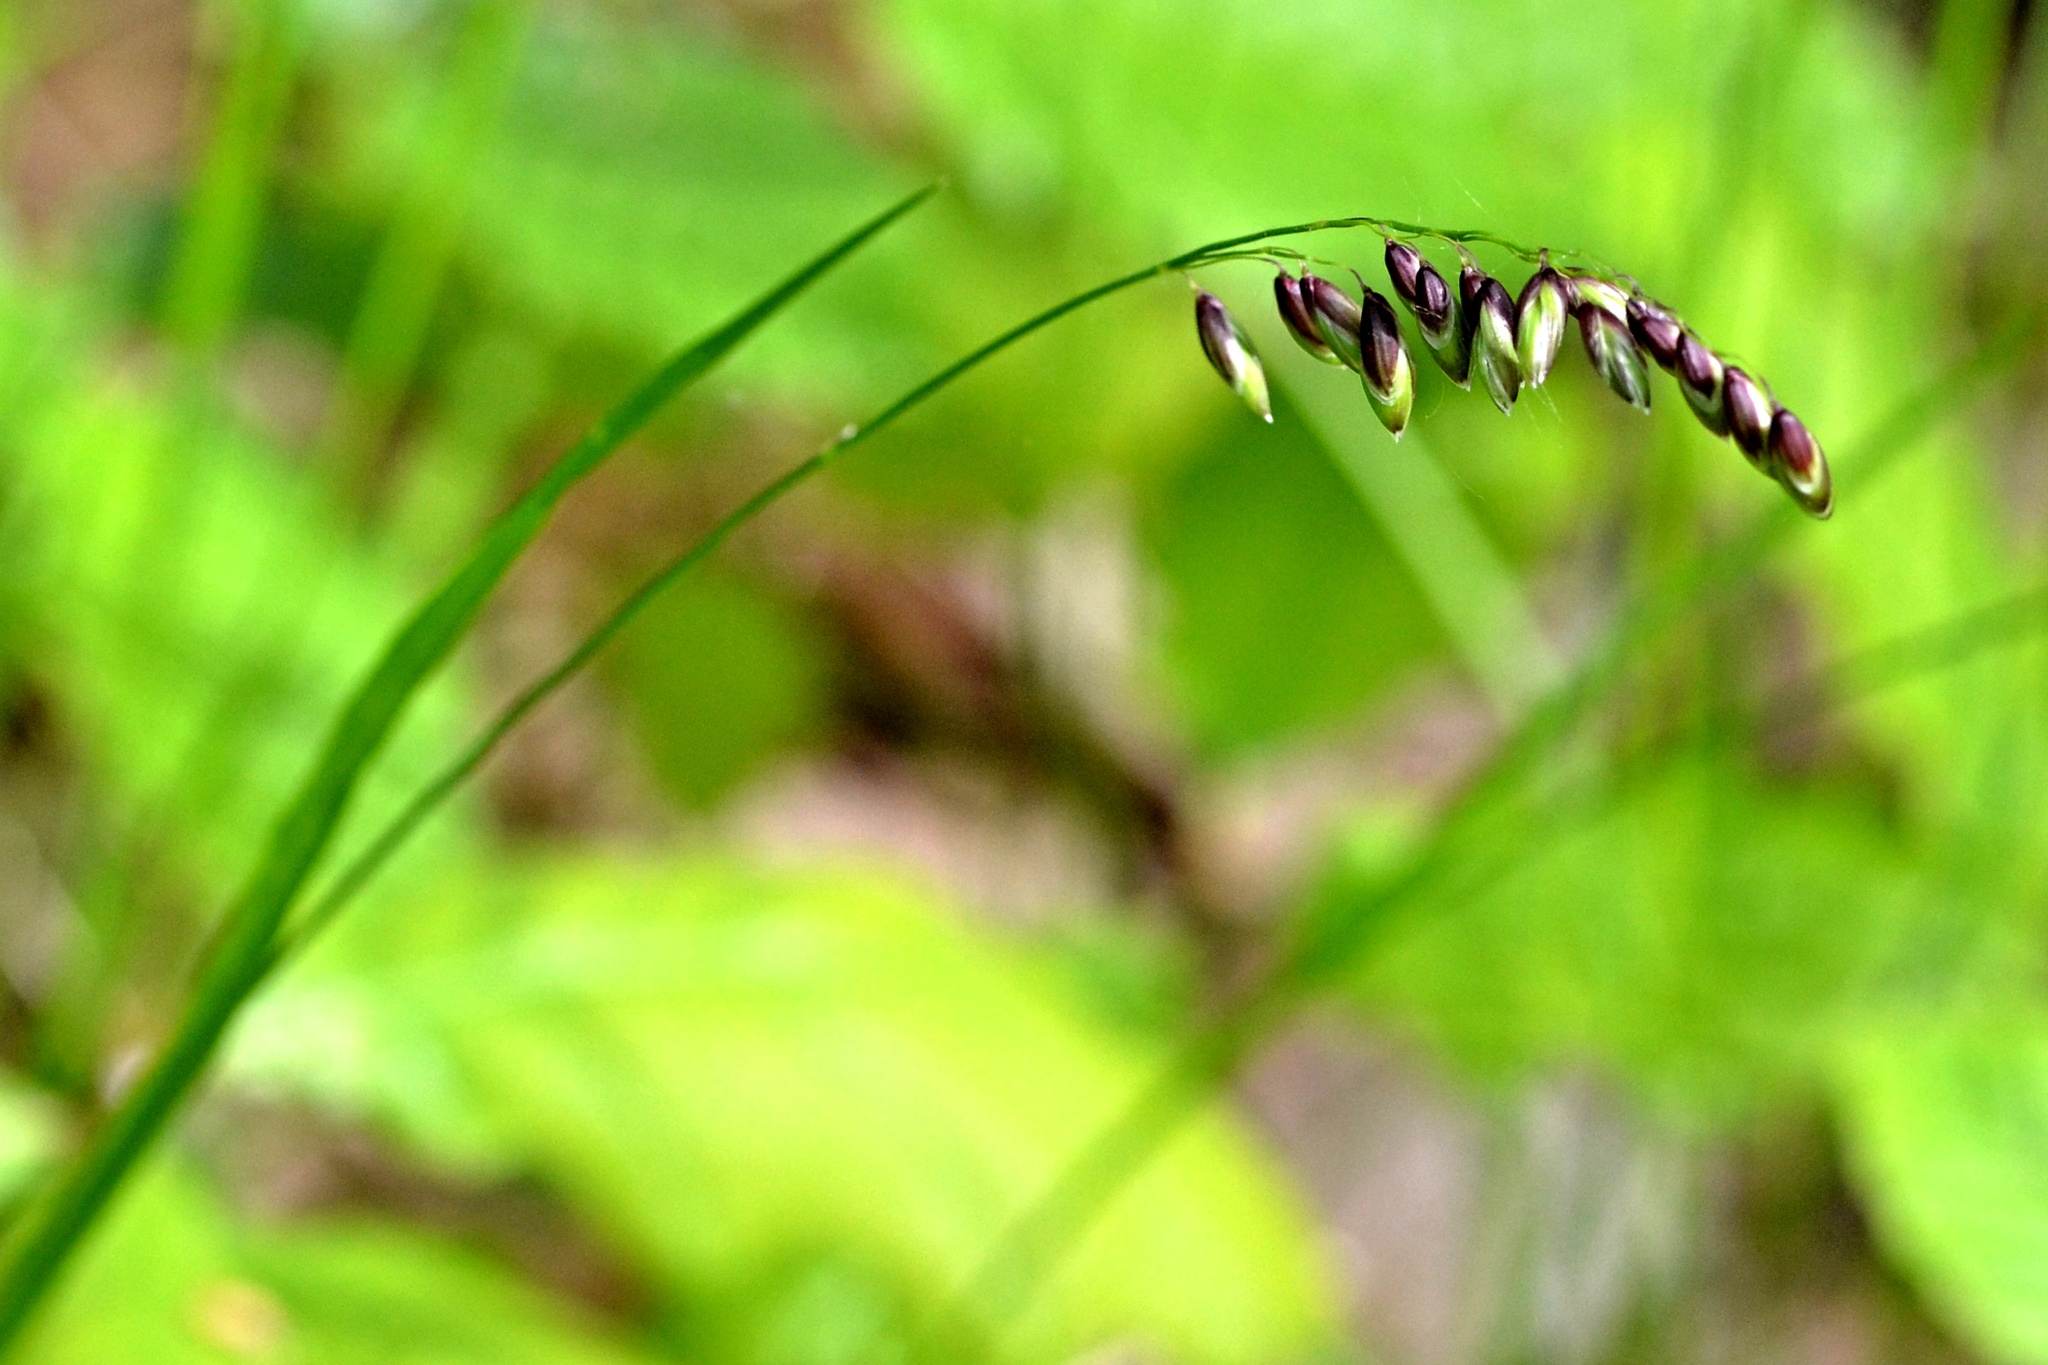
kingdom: Plantae
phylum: Tracheophyta
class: Liliopsida
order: Poales
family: Poaceae
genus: Melica
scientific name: Melica nutans
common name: Mountain melick
